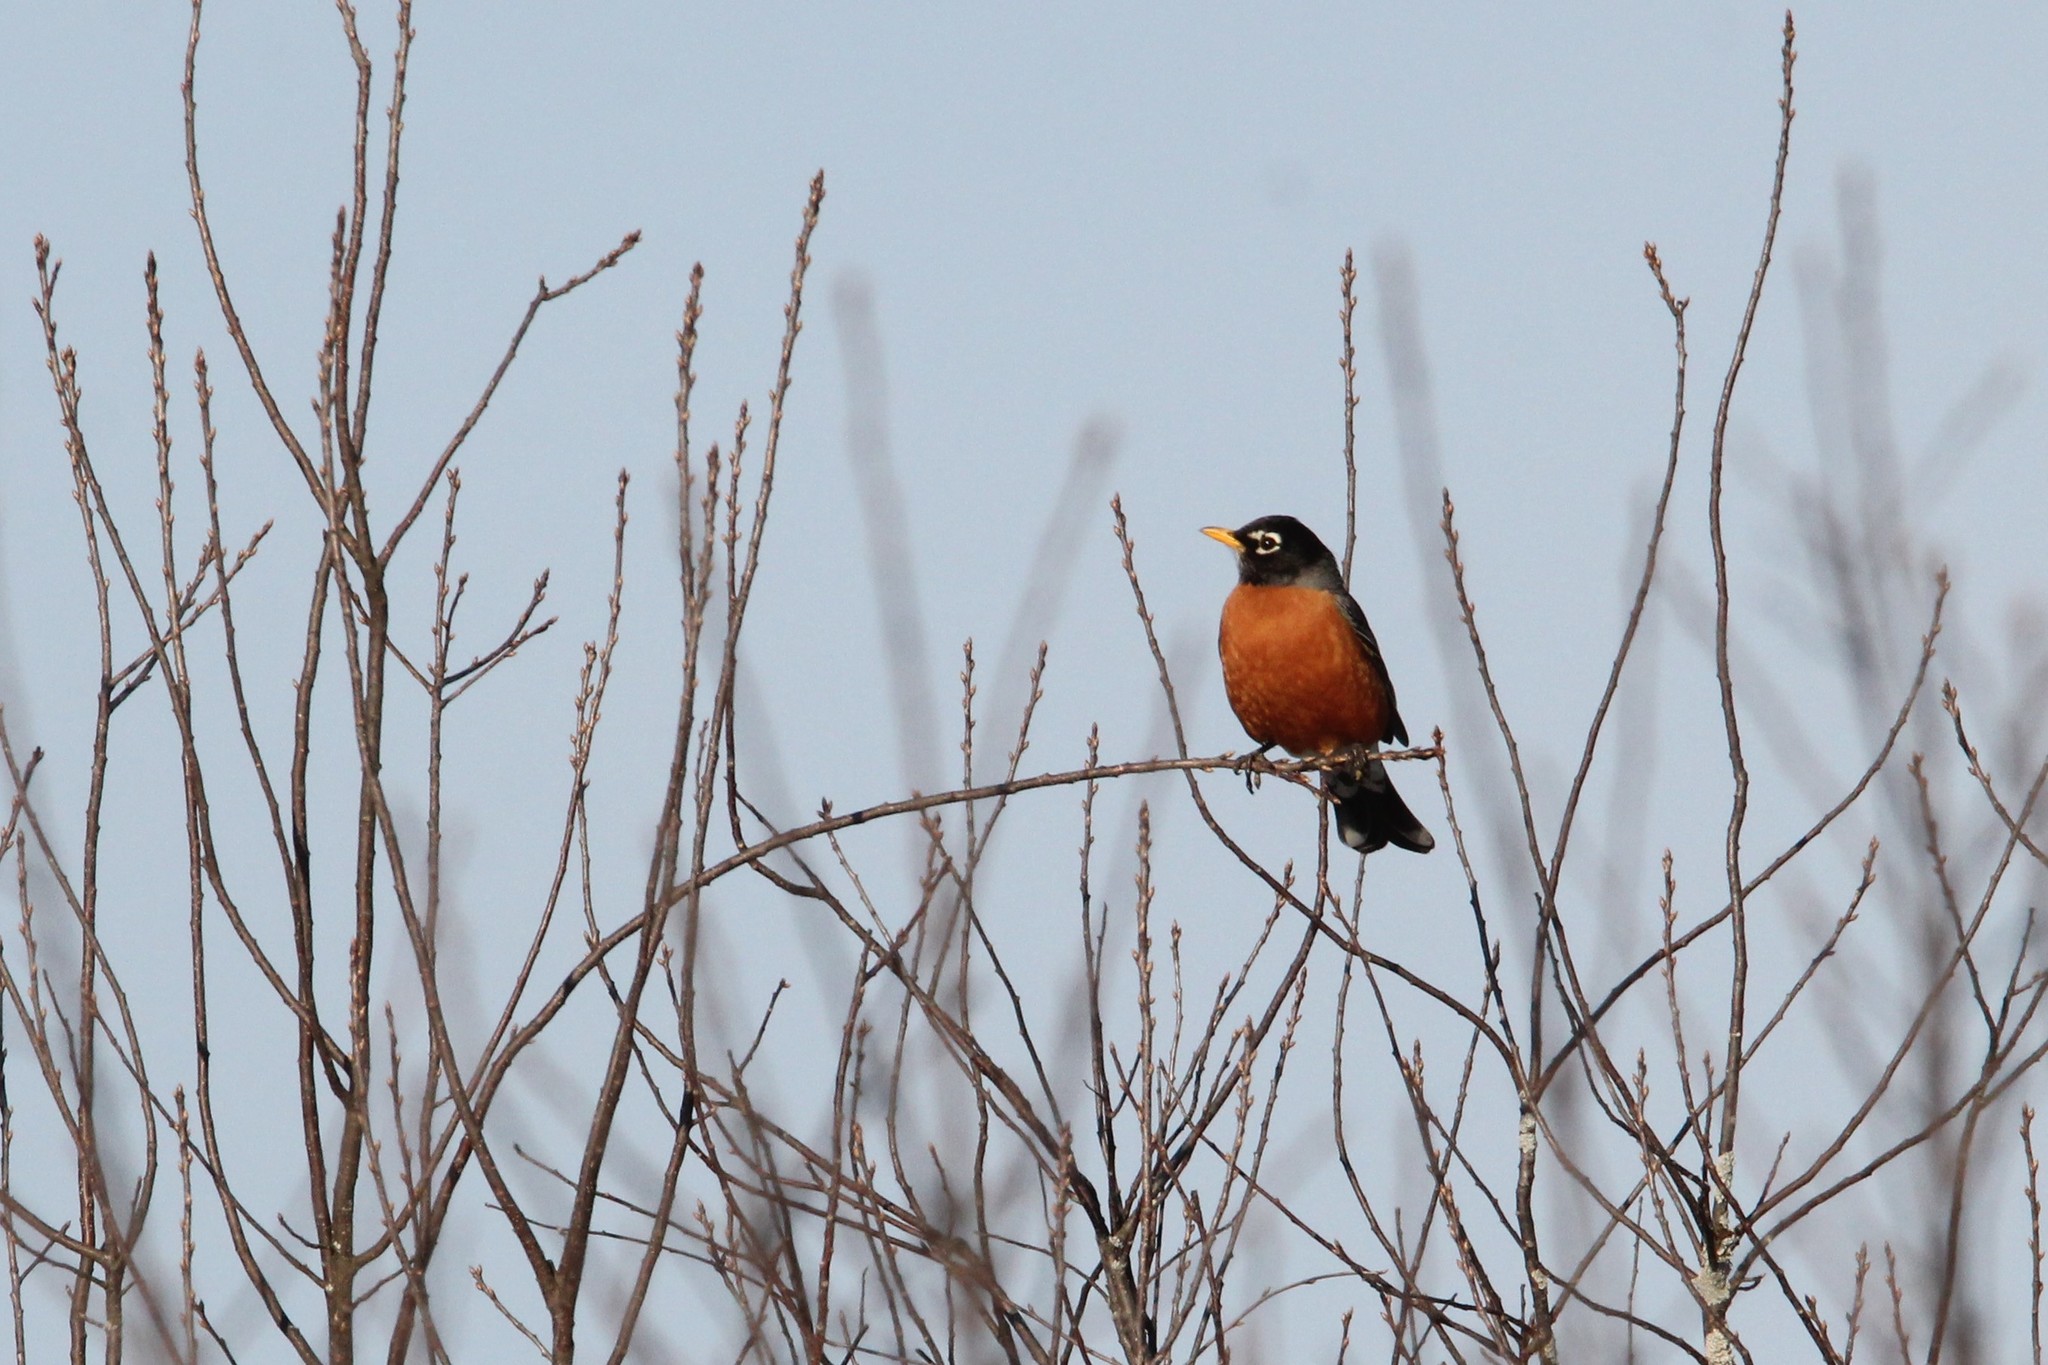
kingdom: Animalia
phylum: Chordata
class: Aves
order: Passeriformes
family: Turdidae
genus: Turdus
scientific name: Turdus migratorius
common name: American robin
